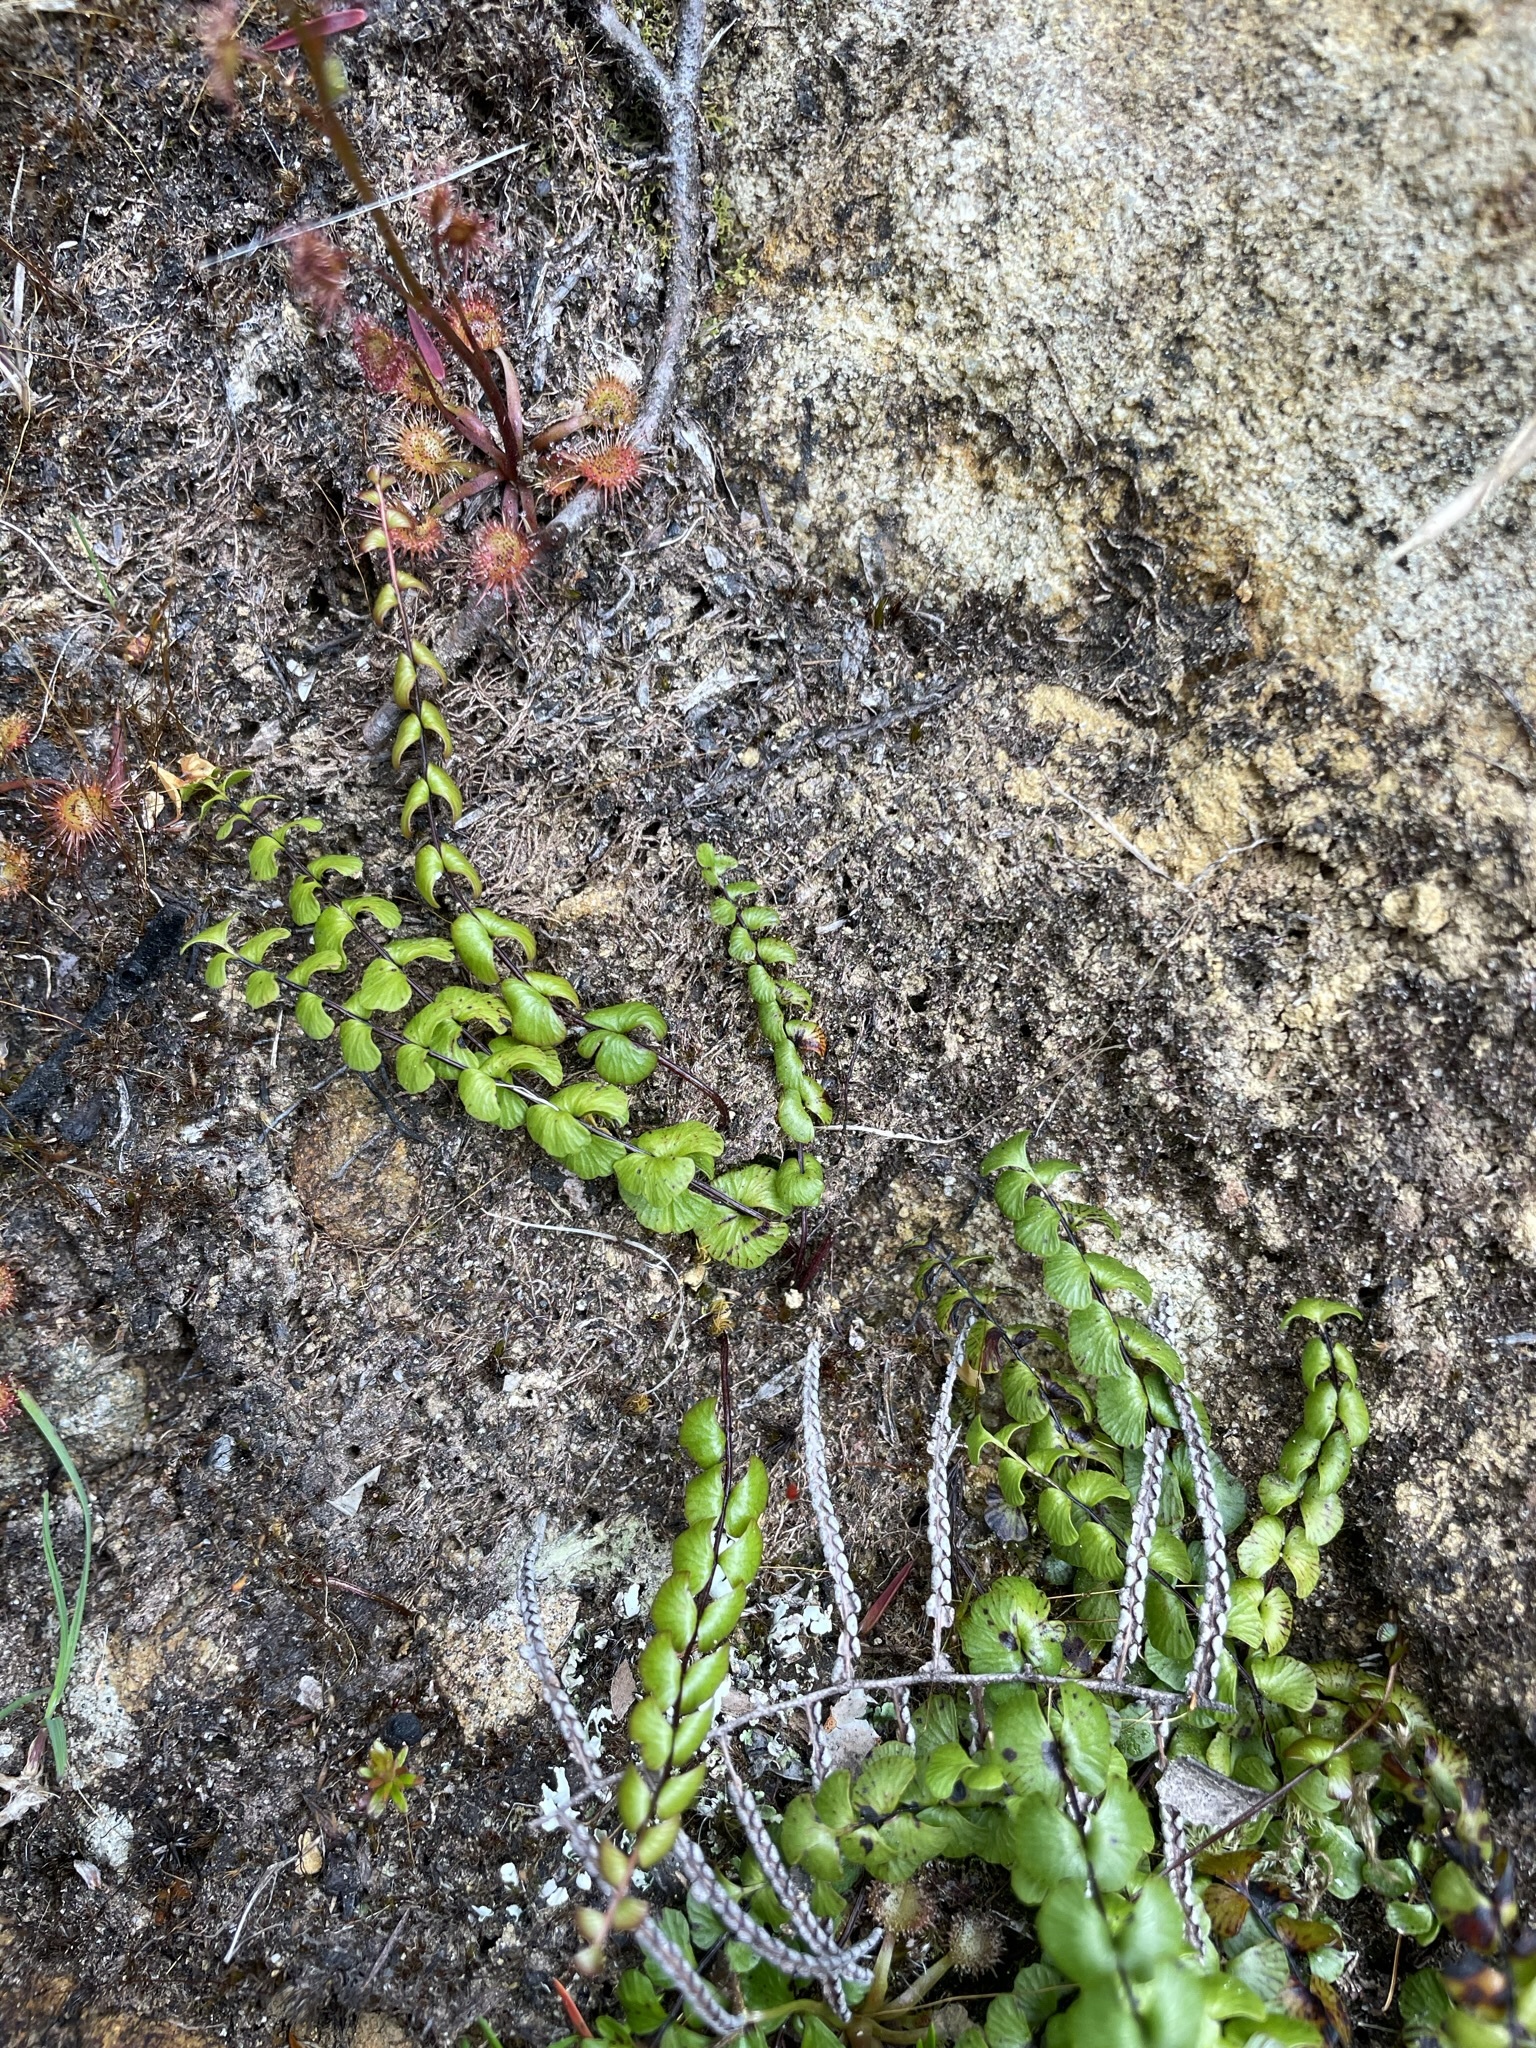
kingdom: Plantae
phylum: Tracheophyta
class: Polypodiopsida
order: Polypodiales
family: Lindsaeaceae
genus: Lindsaea
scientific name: Lindsaea linearis
